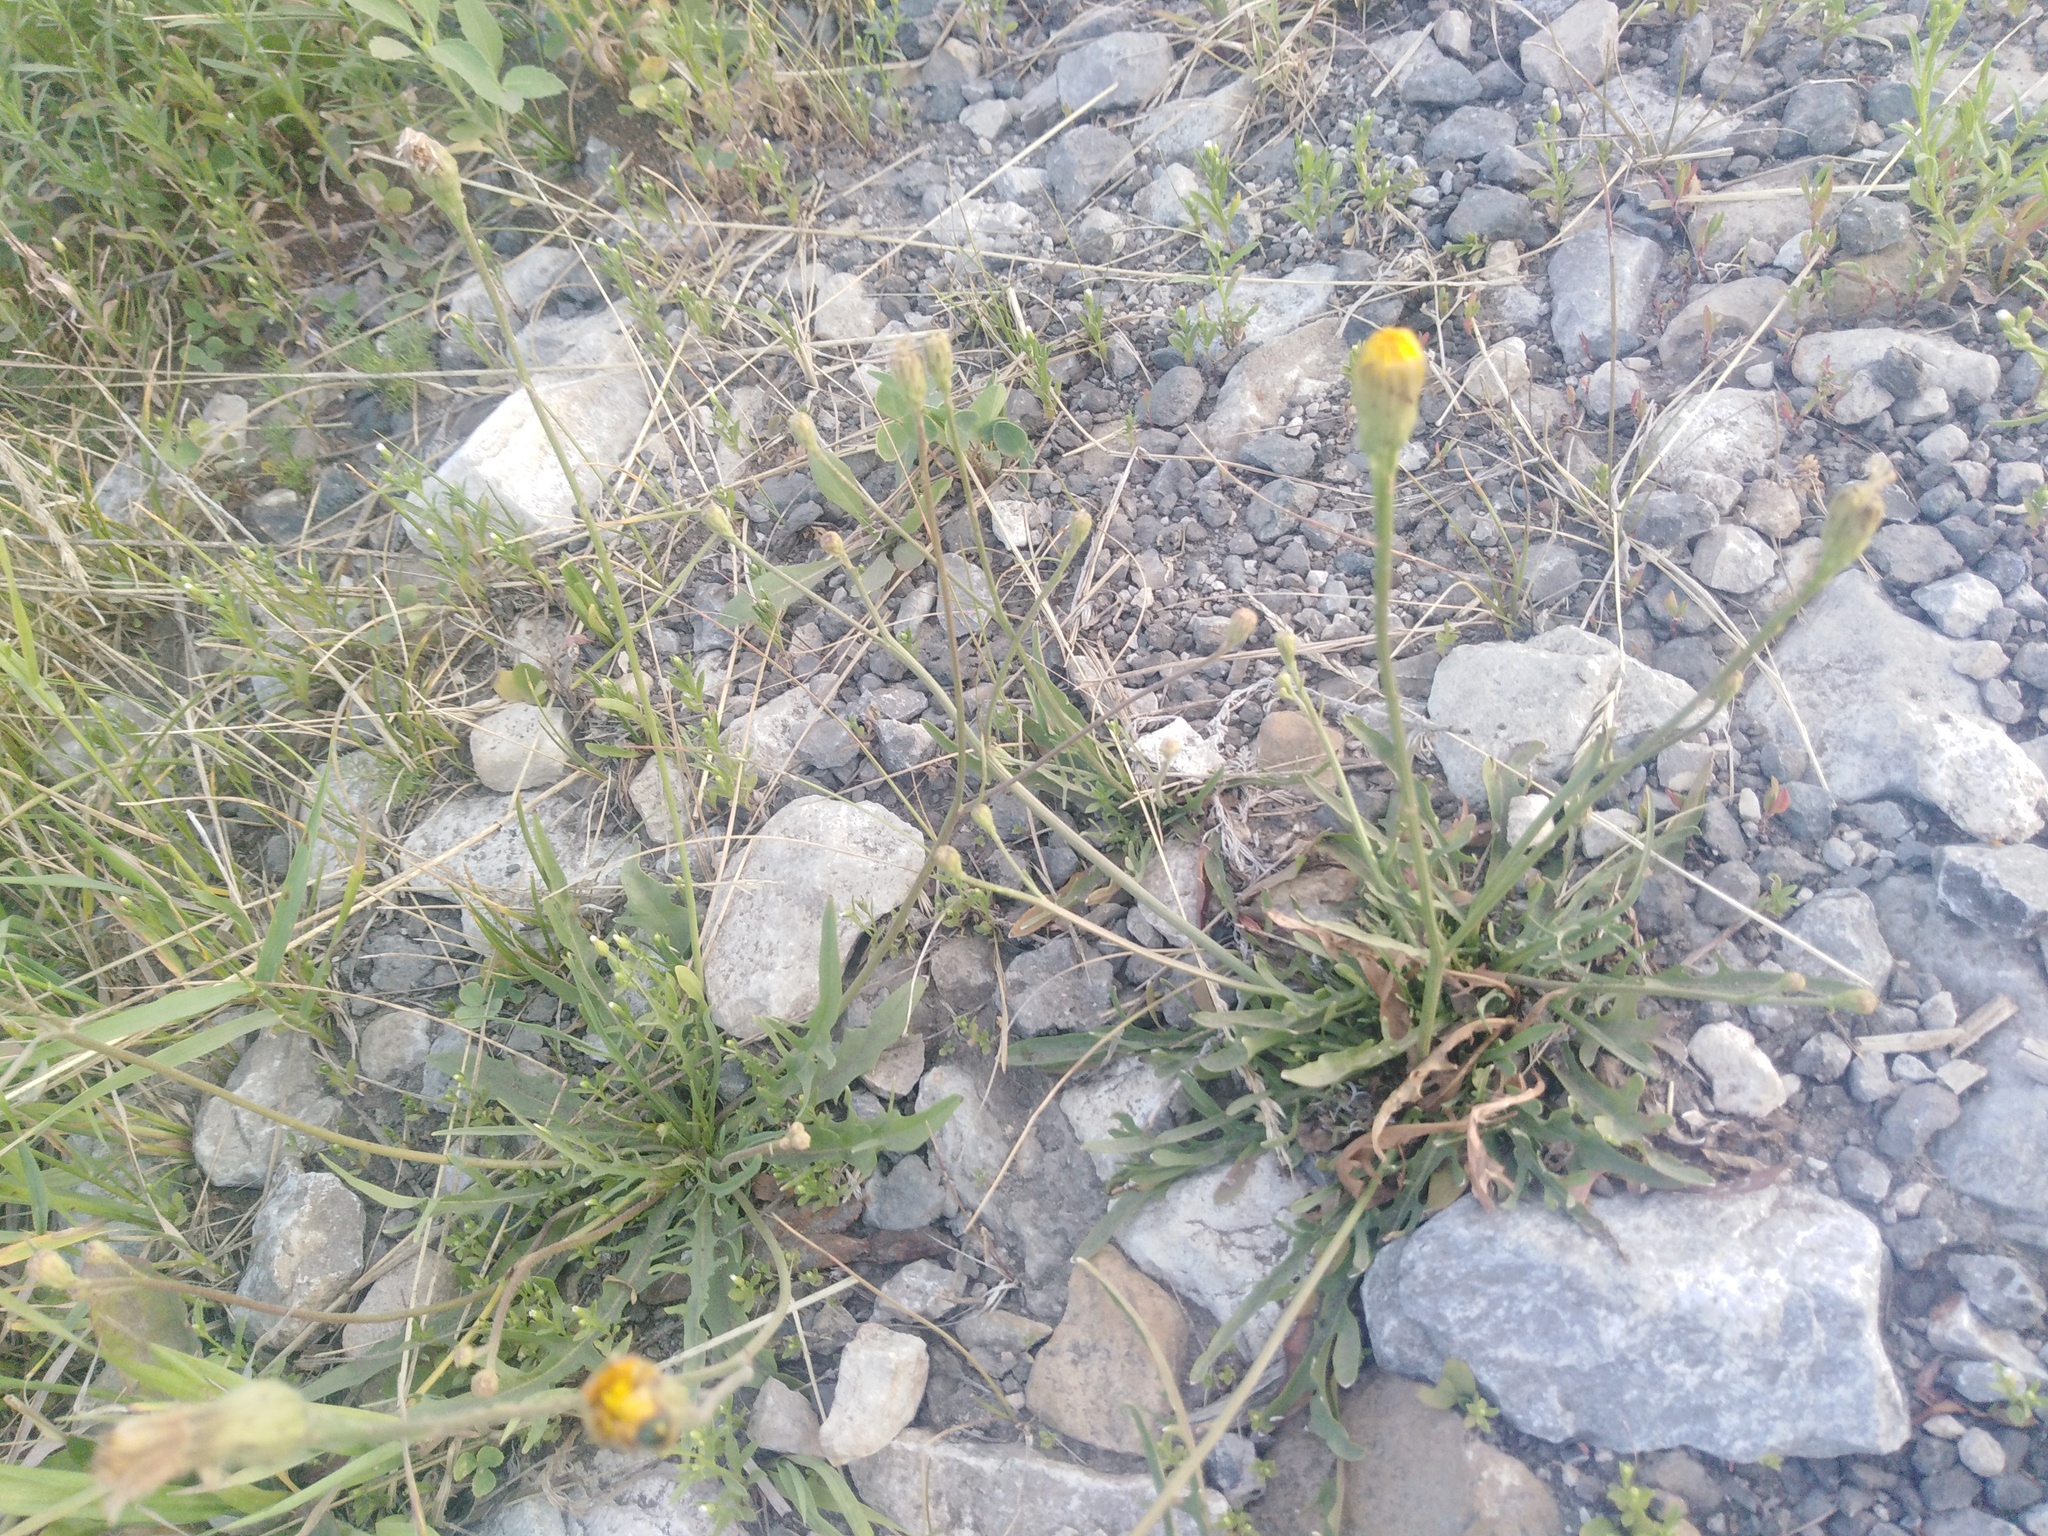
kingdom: Plantae
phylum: Tracheophyta
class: Magnoliopsida
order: Asterales
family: Asteraceae
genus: Scorzoneroides
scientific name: Scorzoneroides autumnalis
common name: Autumn hawkbit
